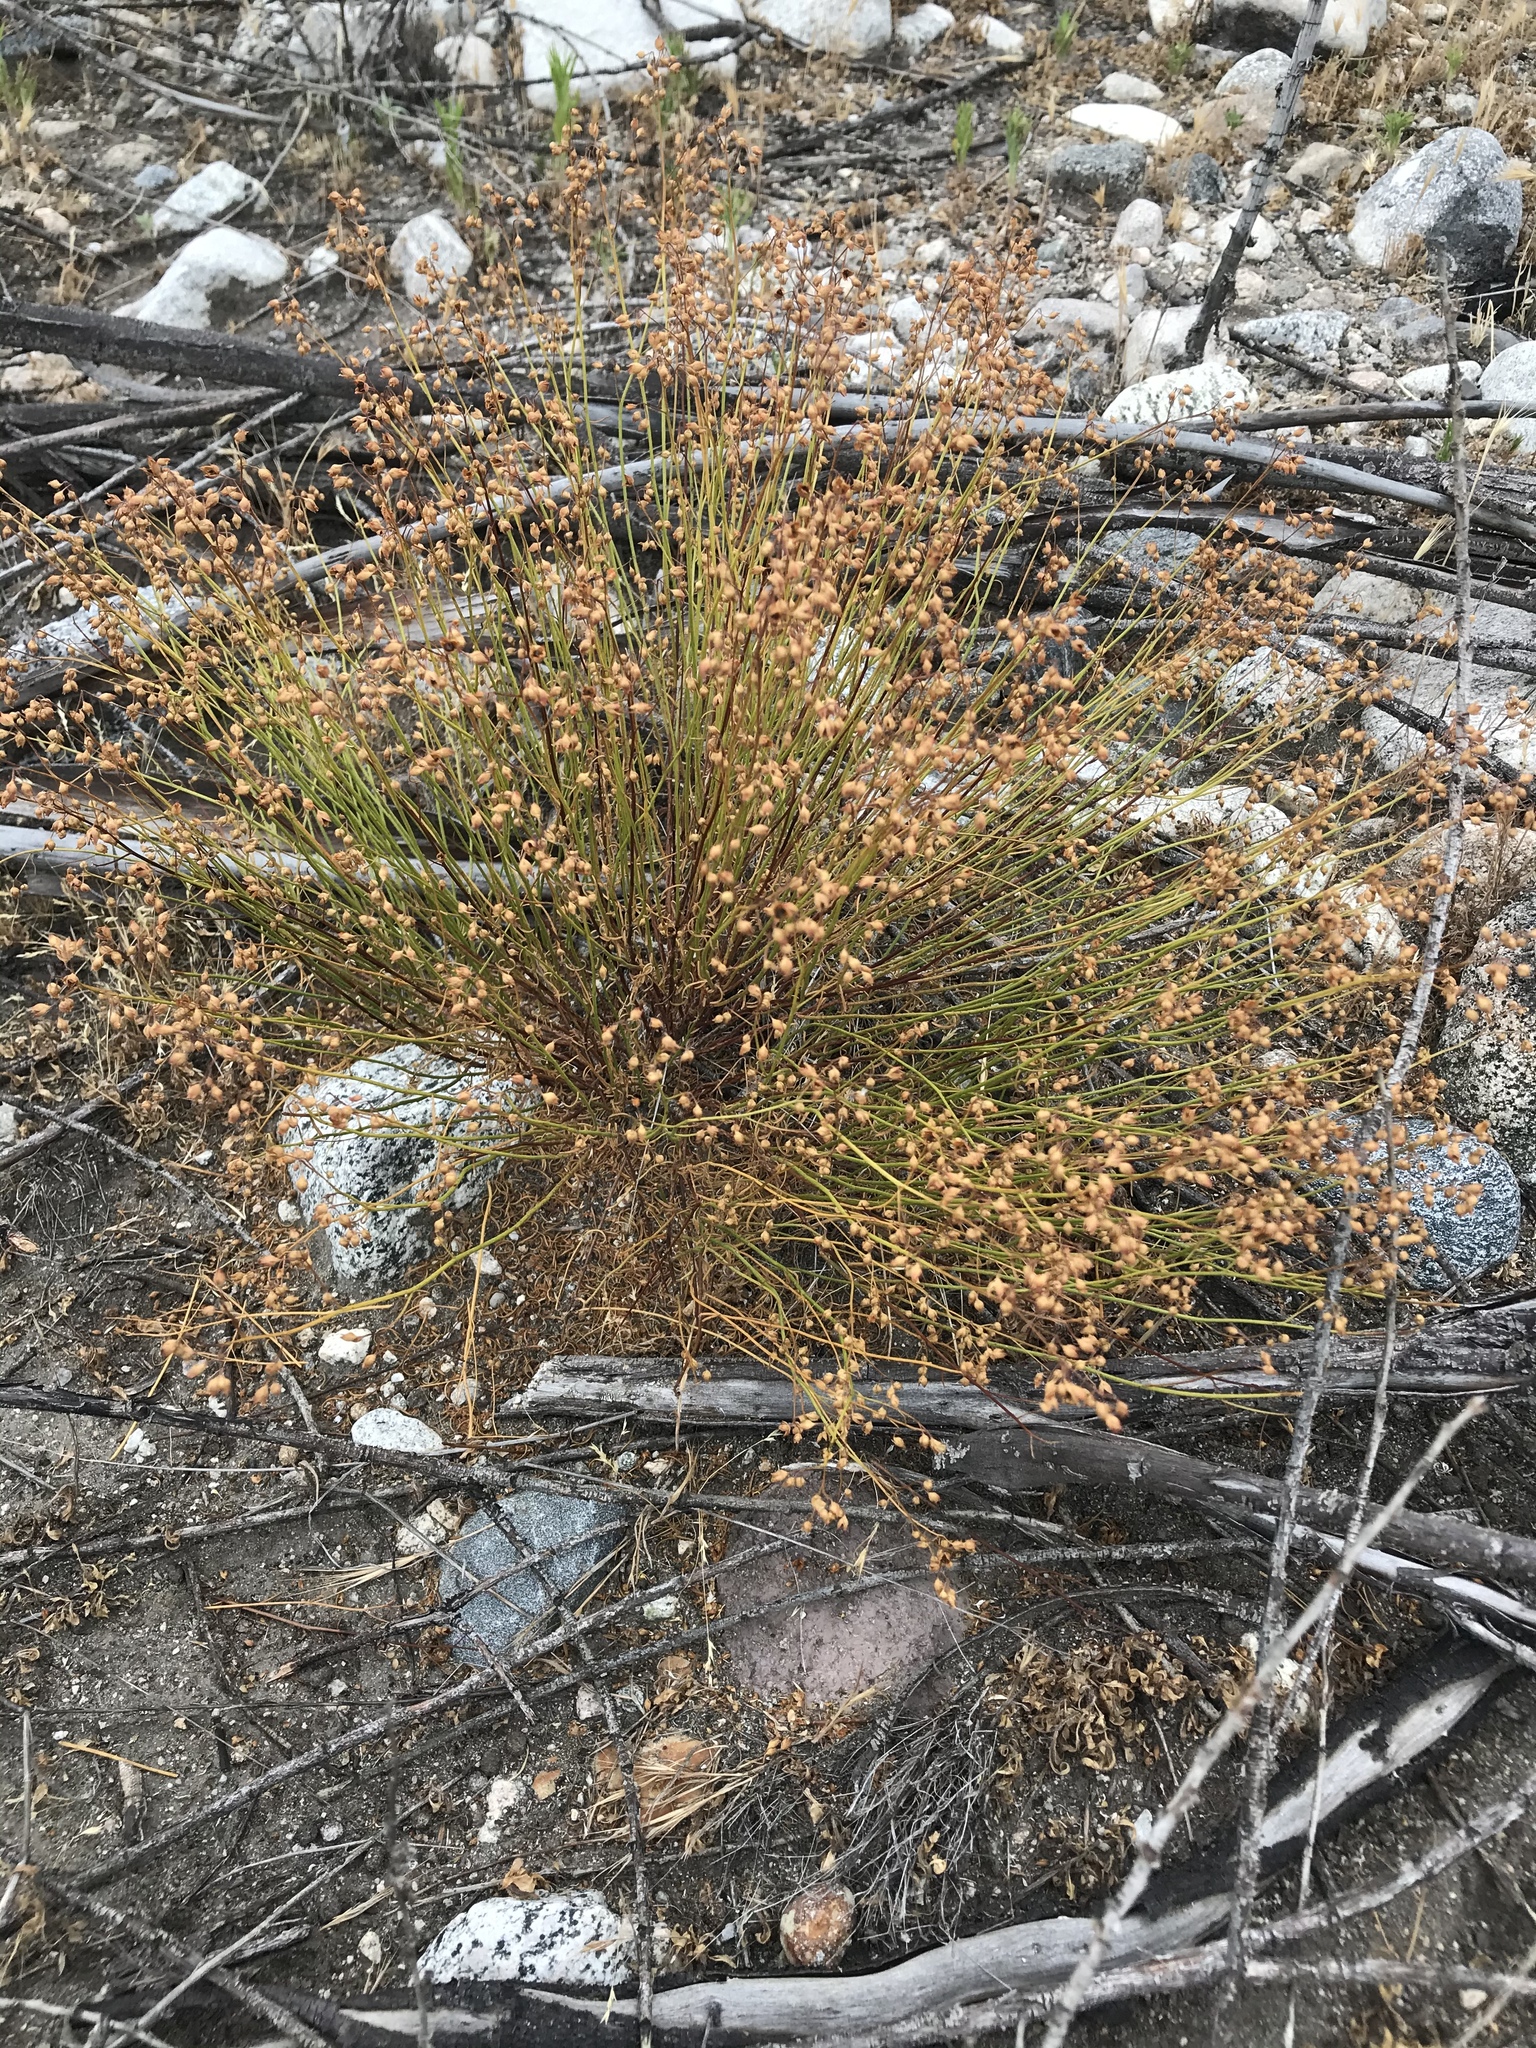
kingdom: Plantae
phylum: Tracheophyta
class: Magnoliopsida
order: Malvales
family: Cistaceae
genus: Crocanthemum
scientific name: Crocanthemum scoparium
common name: Broom-rose
